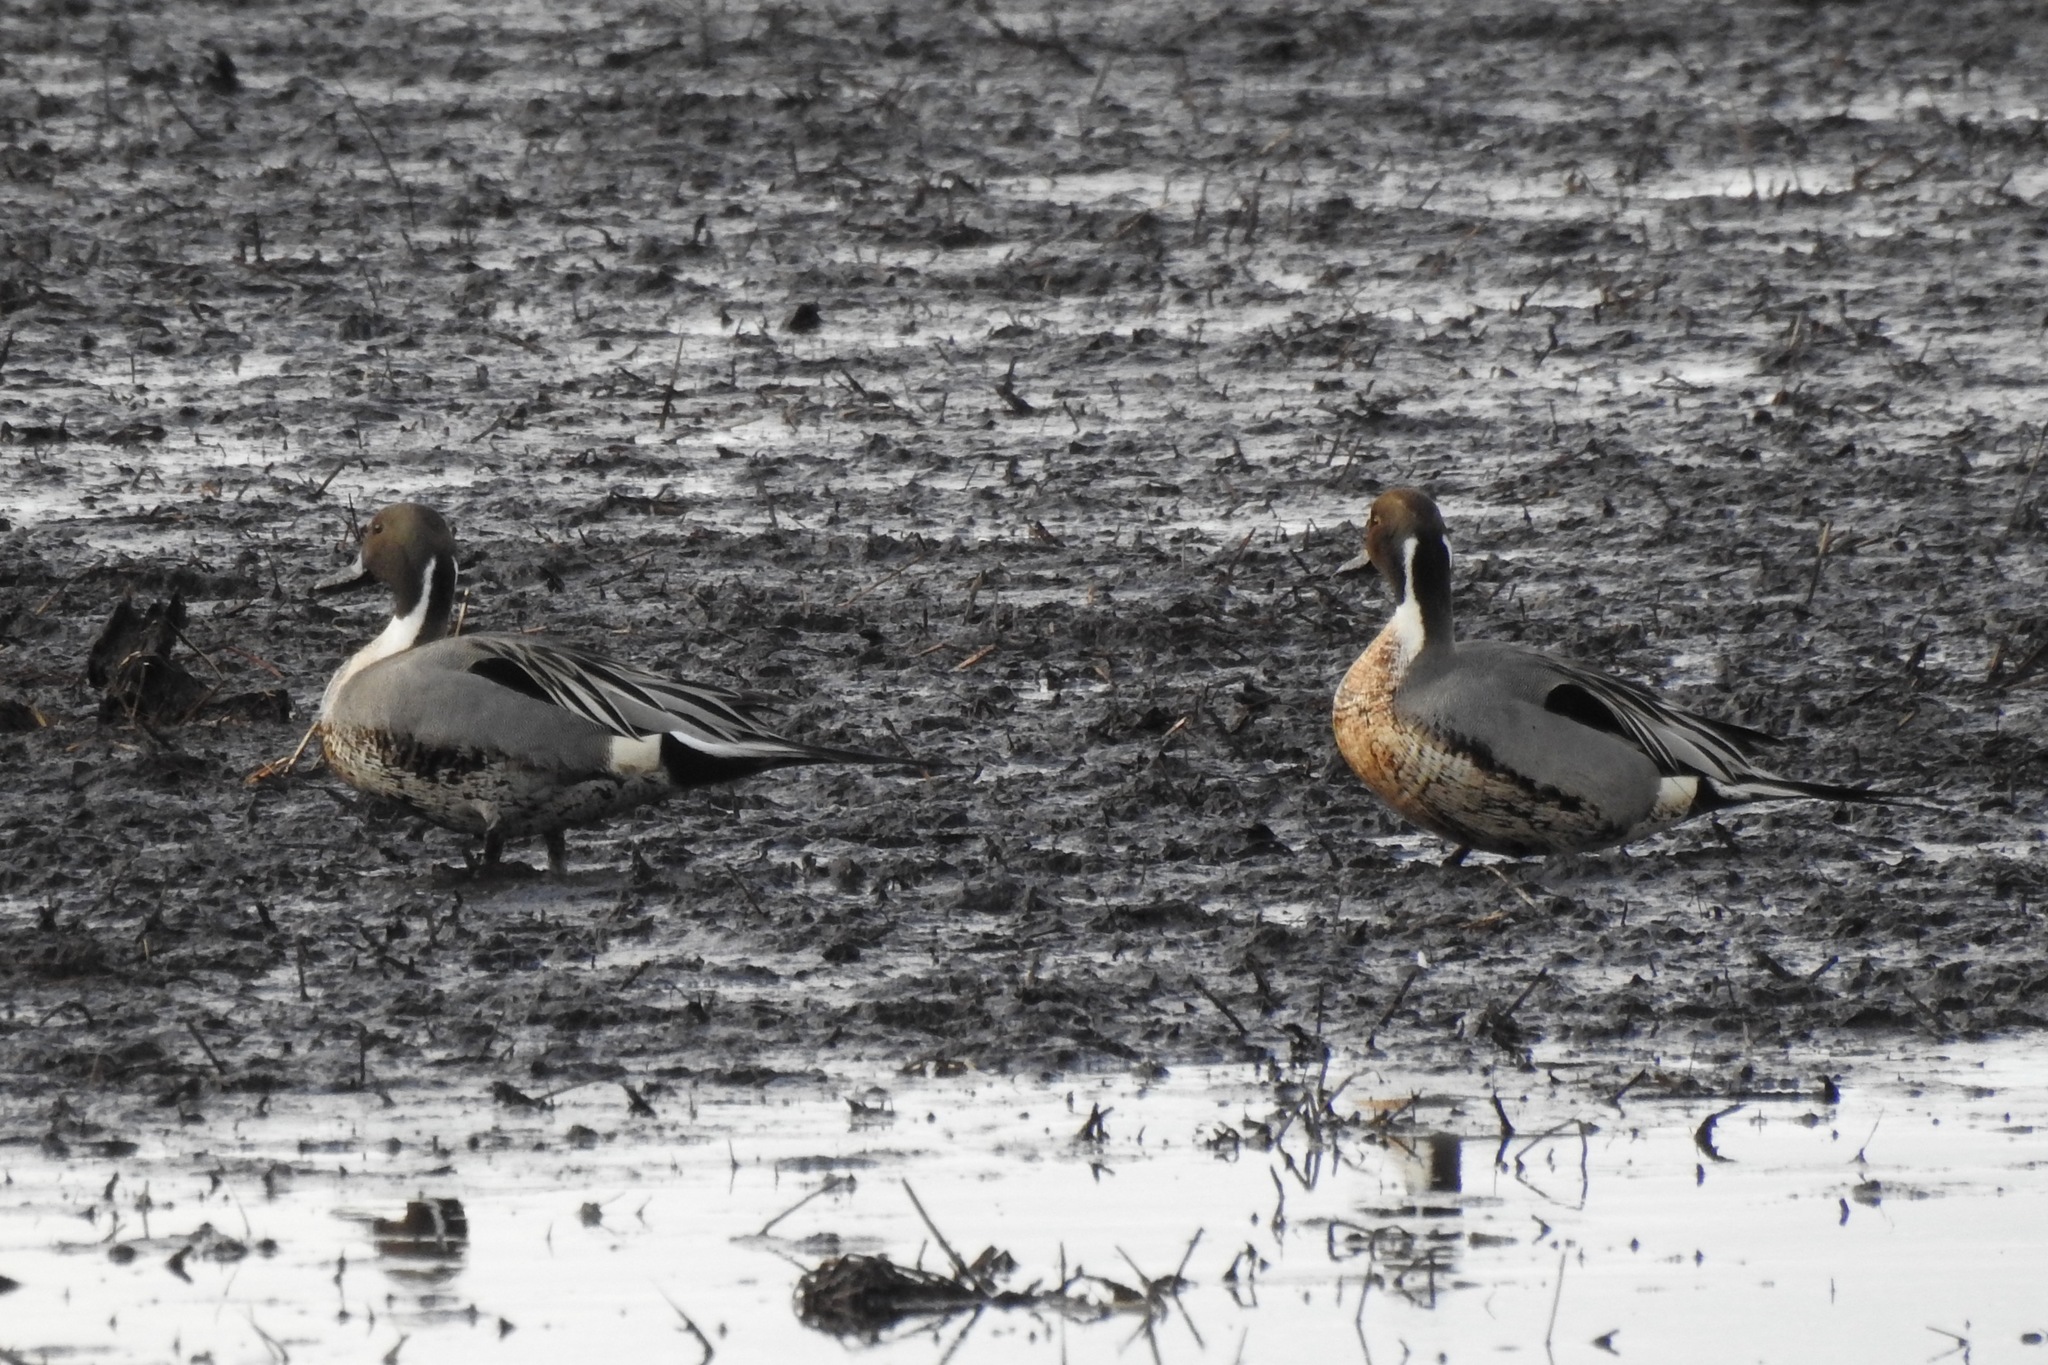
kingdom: Animalia
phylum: Chordata
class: Aves
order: Anseriformes
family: Anatidae
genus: Anas
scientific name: Anas acuta
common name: Northern pintail
